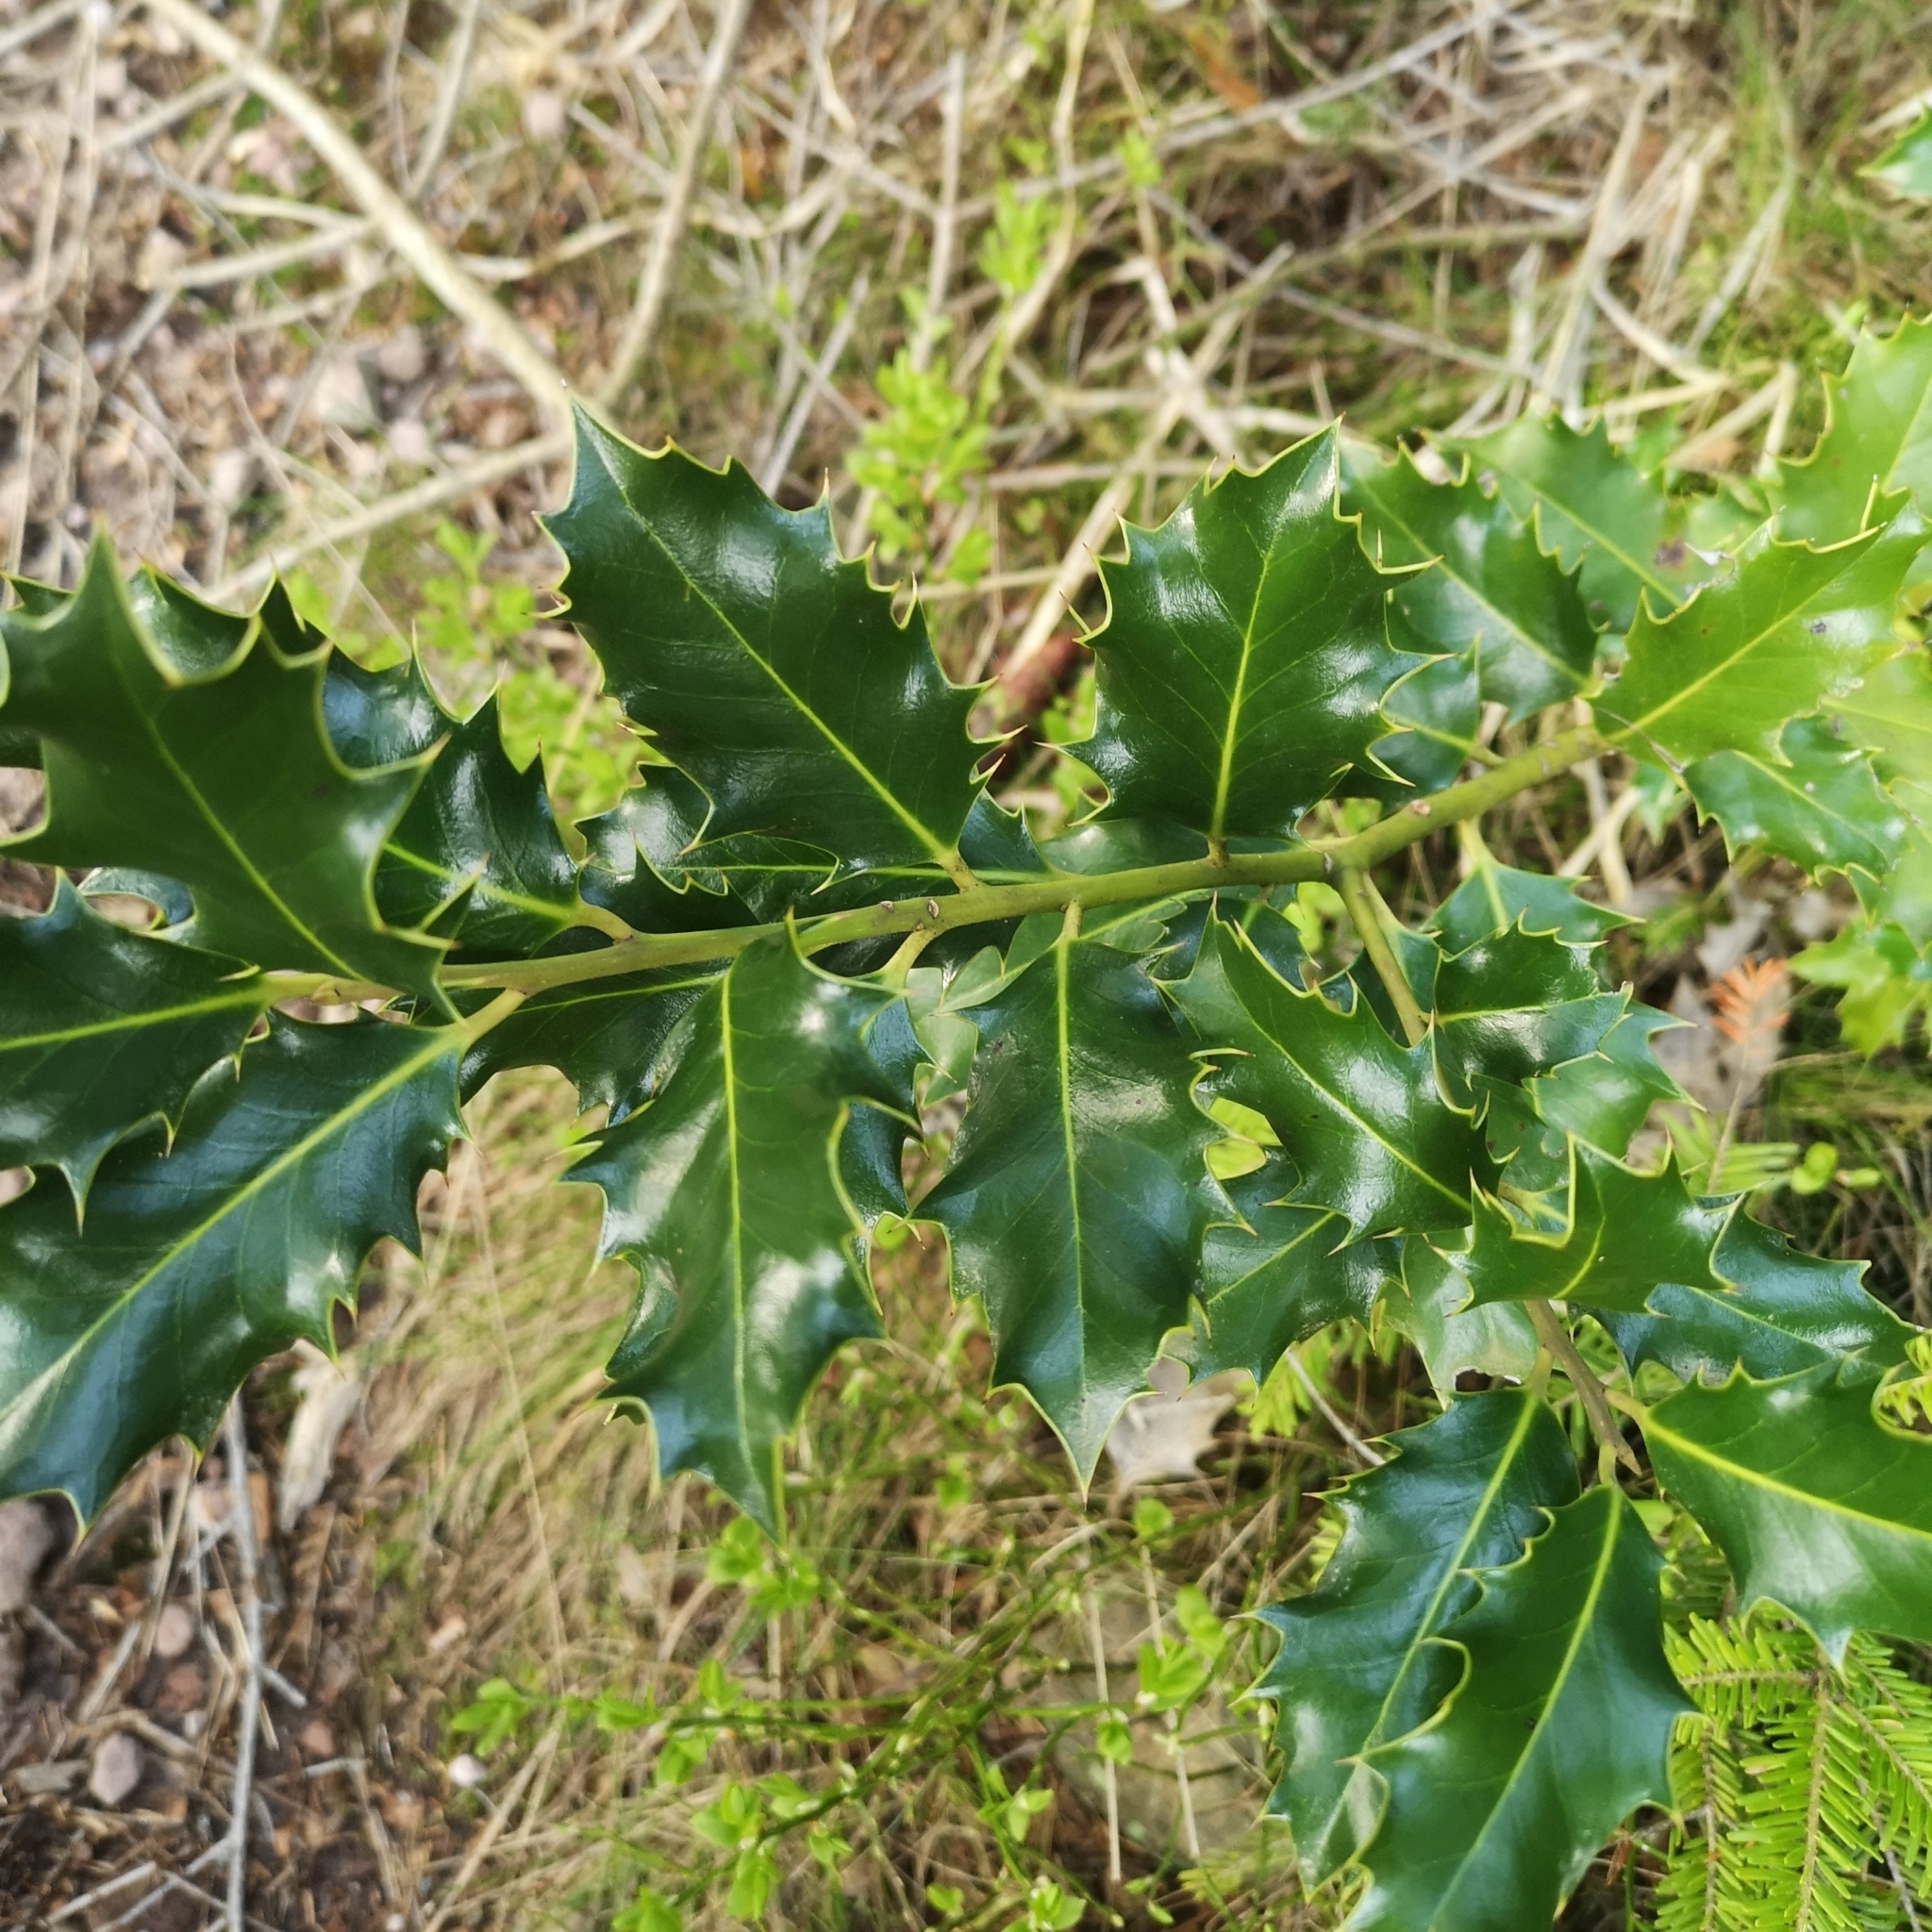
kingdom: Plantae
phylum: Tracheophyta
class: Magnoliopsida
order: Aquifoliales
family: Aquifoliaceae
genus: Ilex
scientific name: Ilex aquifolium
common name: English holly
